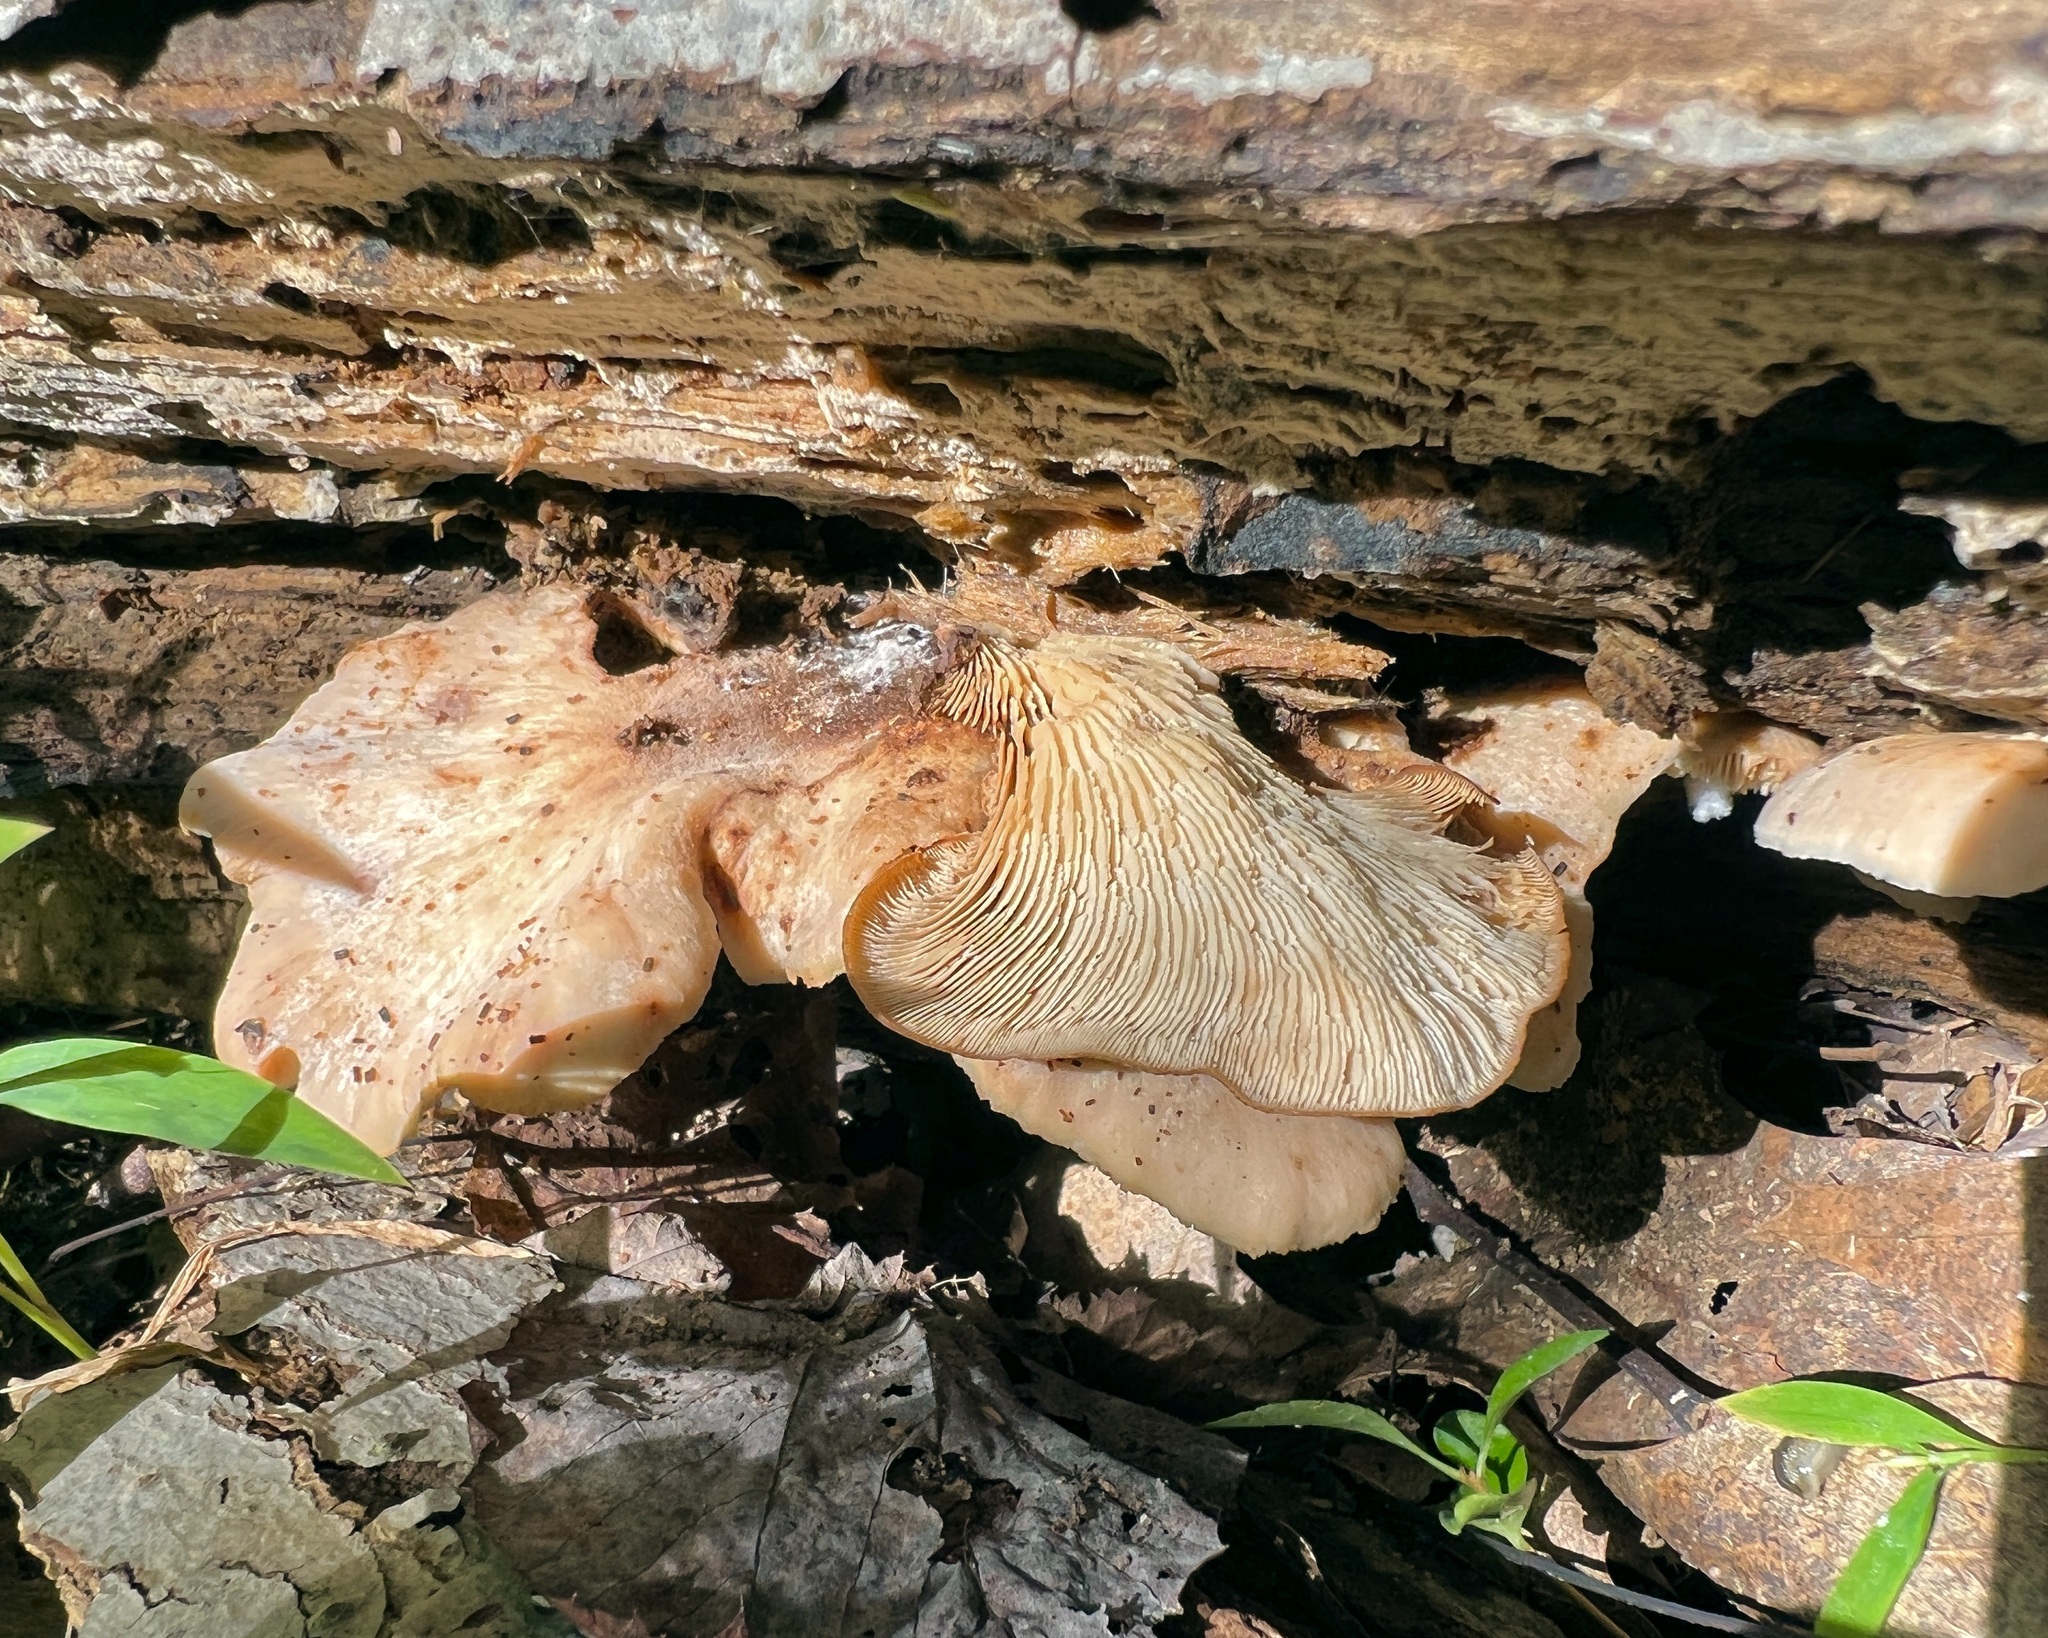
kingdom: Fungi
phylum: Basidiomycota
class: Agaricomycetes
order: Russulales
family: Auriscalpiaceae
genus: Lentinellus
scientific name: Lentinellus ursinus
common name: Bear lentinus
